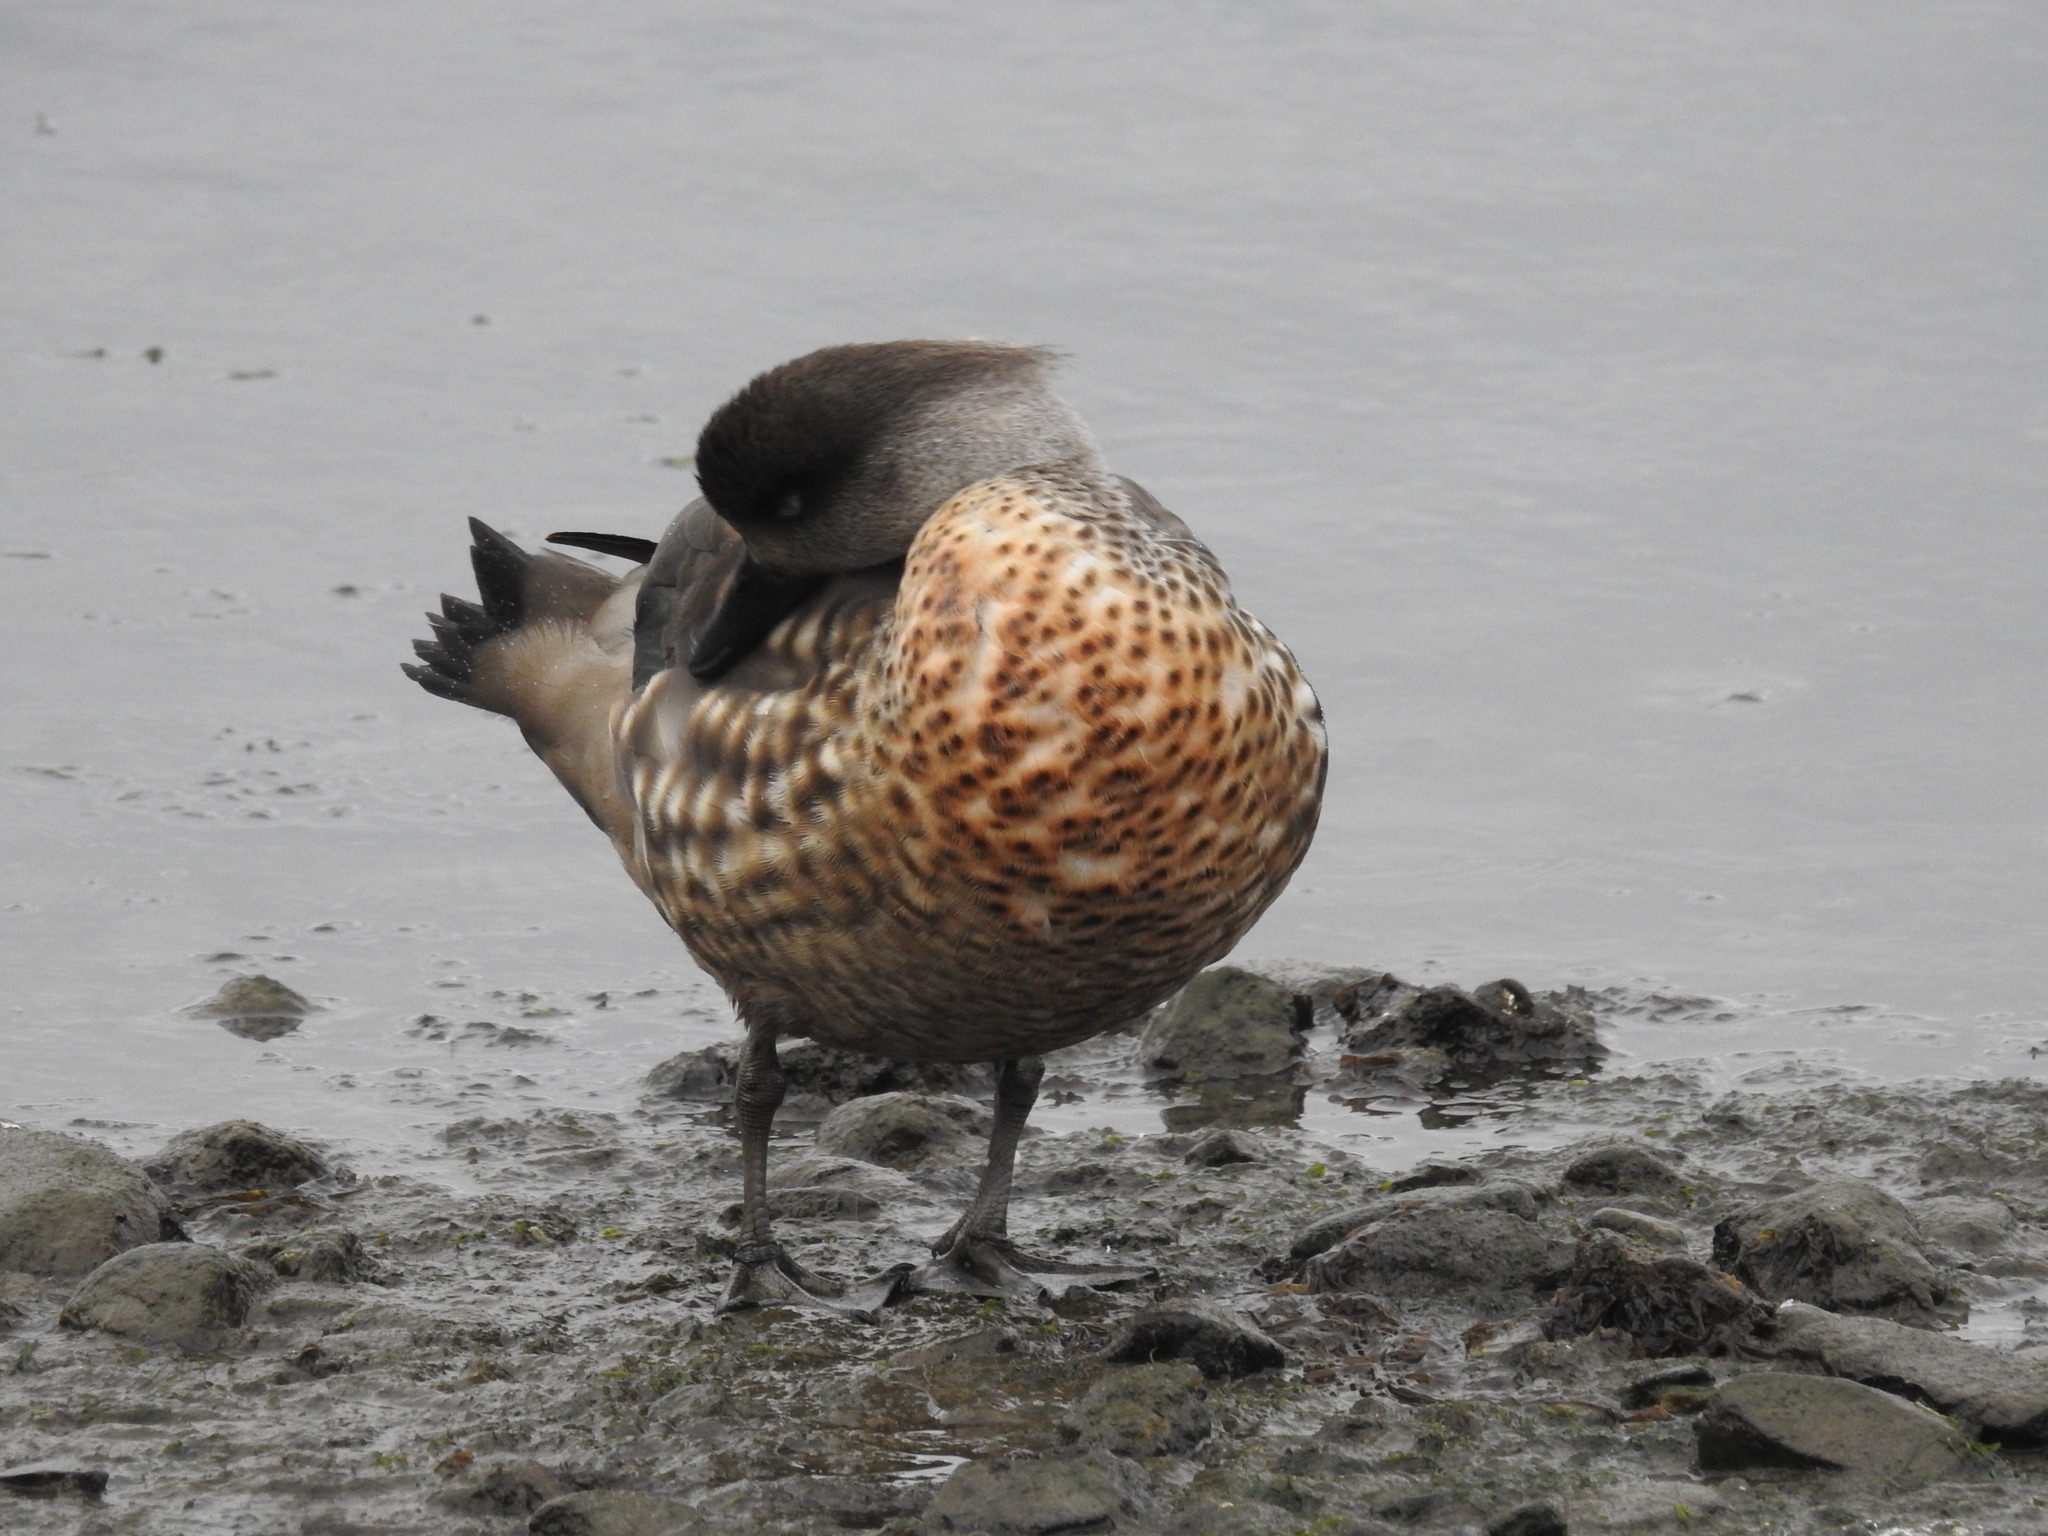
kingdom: Animalia
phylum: Chordata
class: Aves
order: Anseriformes
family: Anatidae
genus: Lophonetta
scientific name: Lophonetta specularioides
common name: Crested duck
